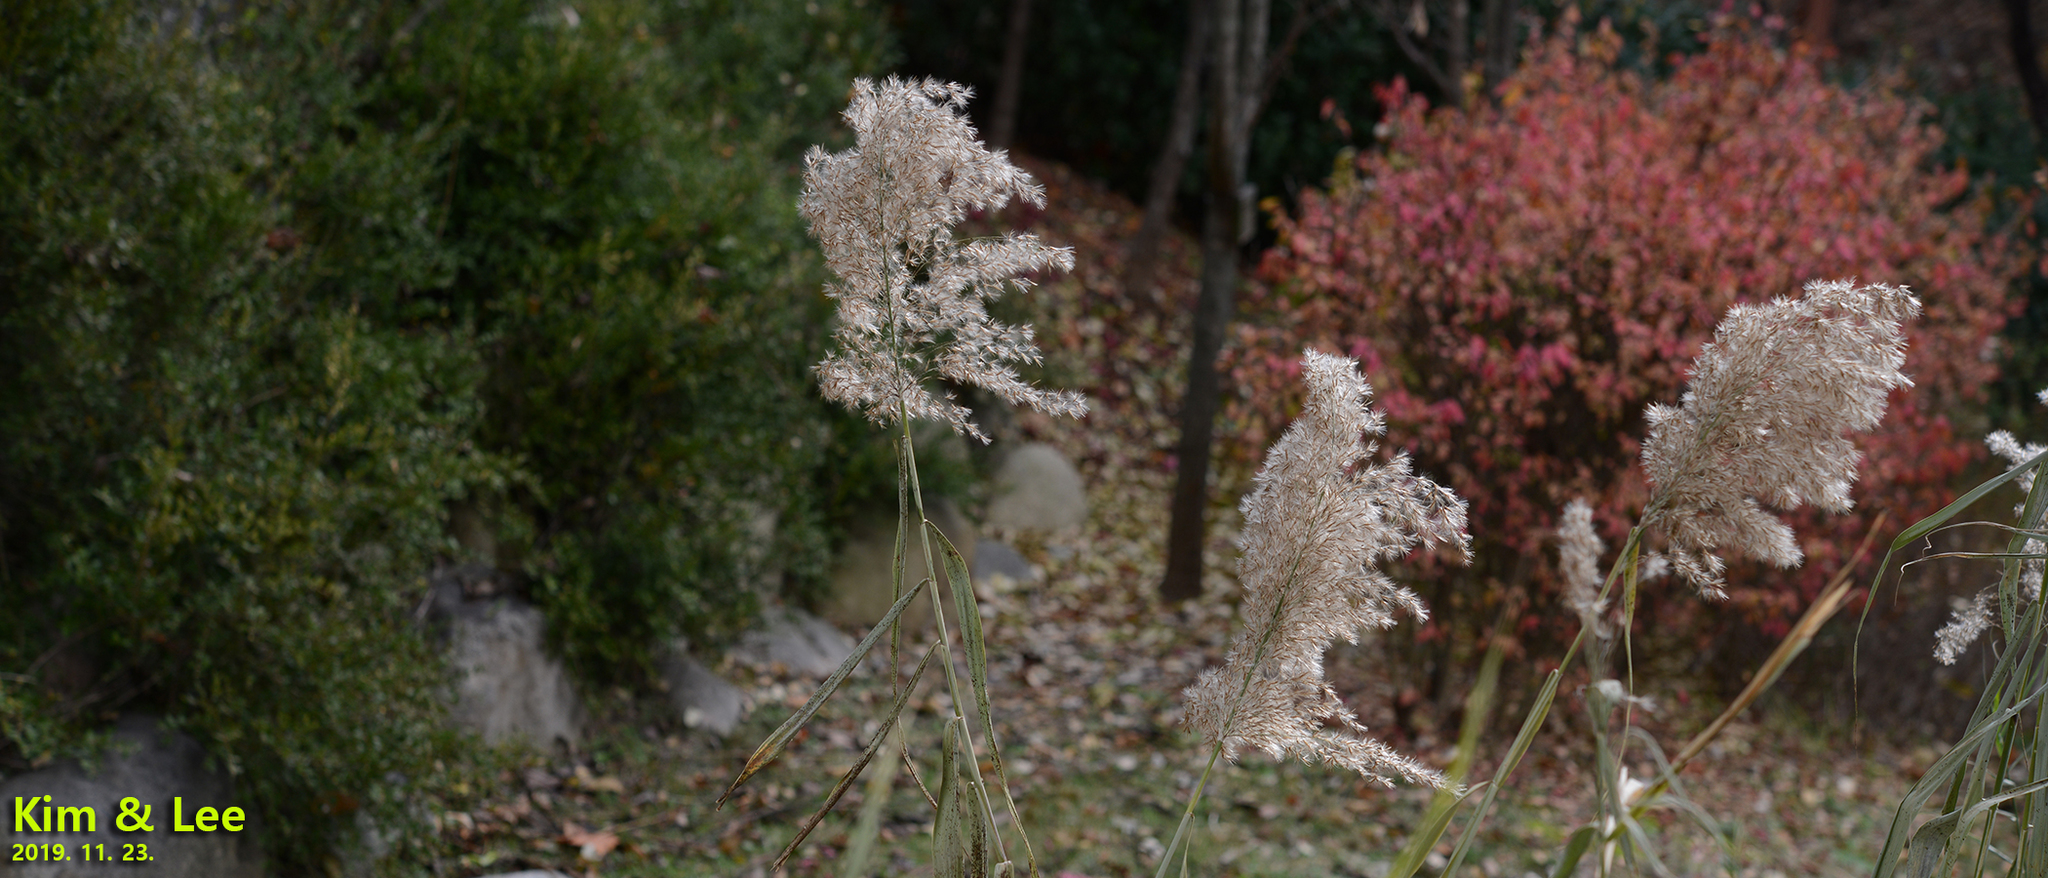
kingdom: Plantae
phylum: Tracheophyta
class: Liliopsida
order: Poales
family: Poaceae
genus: Phragmites
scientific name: Phragmites australis
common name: Common reed
